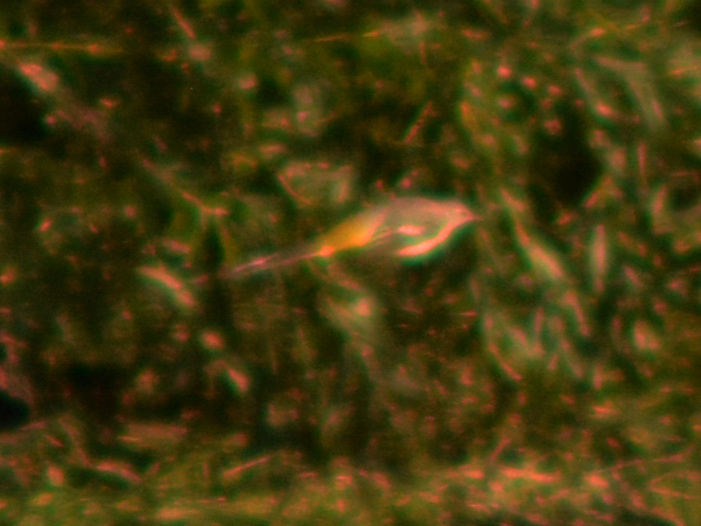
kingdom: Animalia
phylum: Chordata
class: Aves
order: Passeriformes
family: Motacillidae
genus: Motacilla
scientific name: Motacilla cinerea
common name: Grey wagtail
